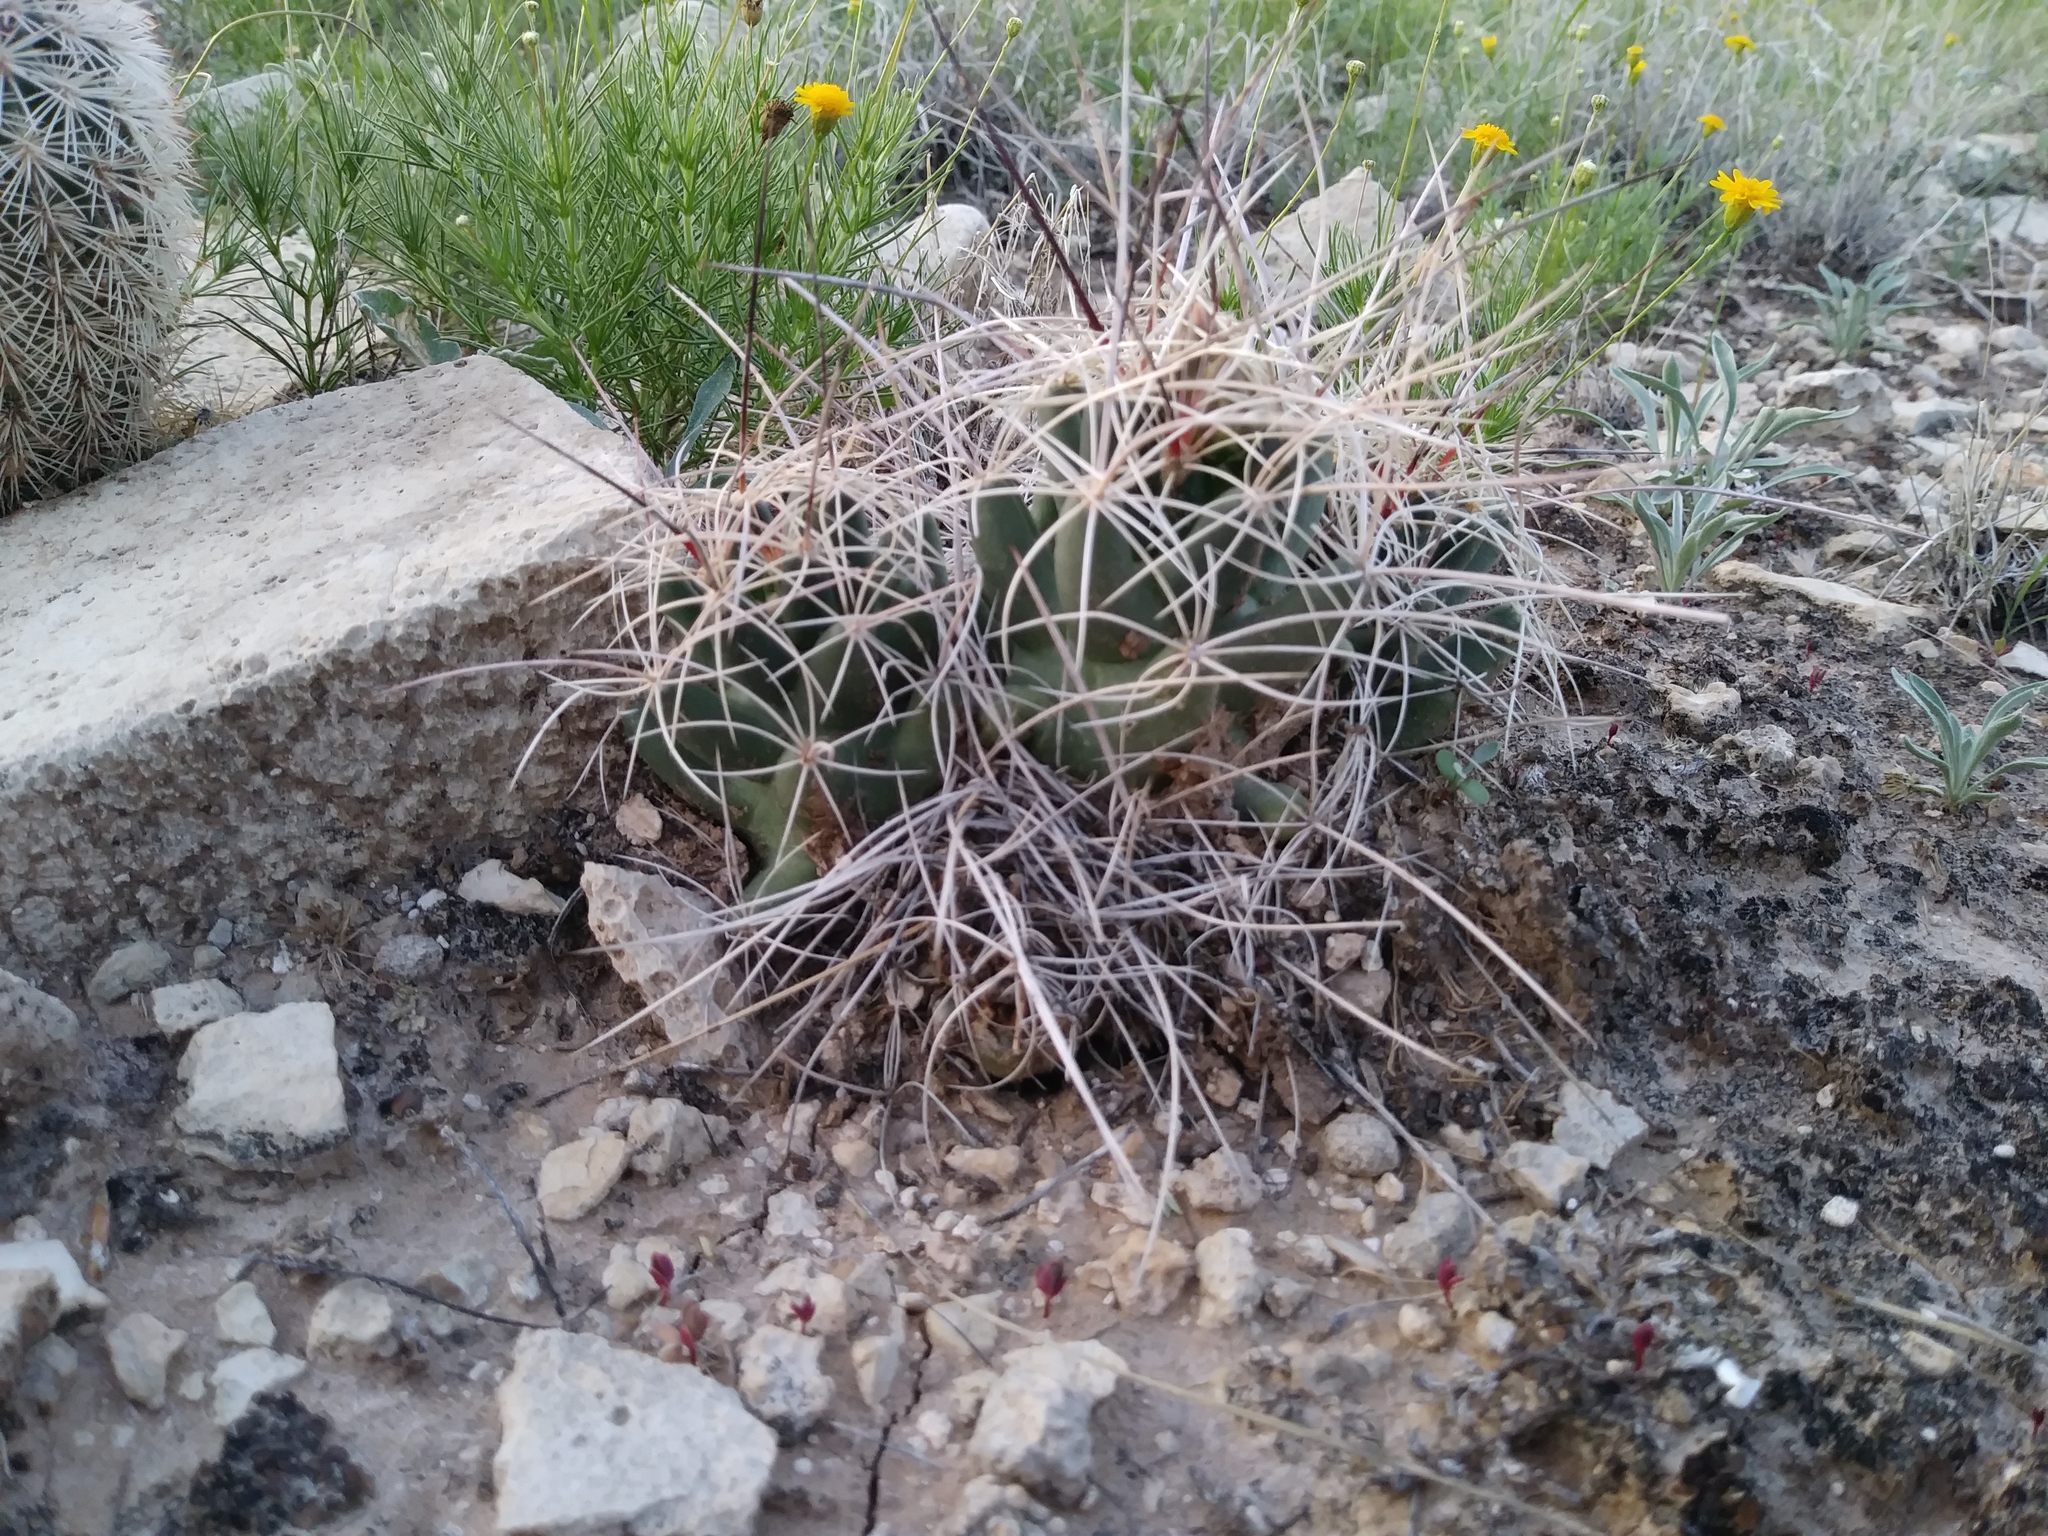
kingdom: Plantae
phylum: Tracheophyta
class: Magnoliopsida
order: Caryophyllales
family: Cactaceae
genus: Coryphantha
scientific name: Coryphantha macromeris
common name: Nipple beehive cactus
